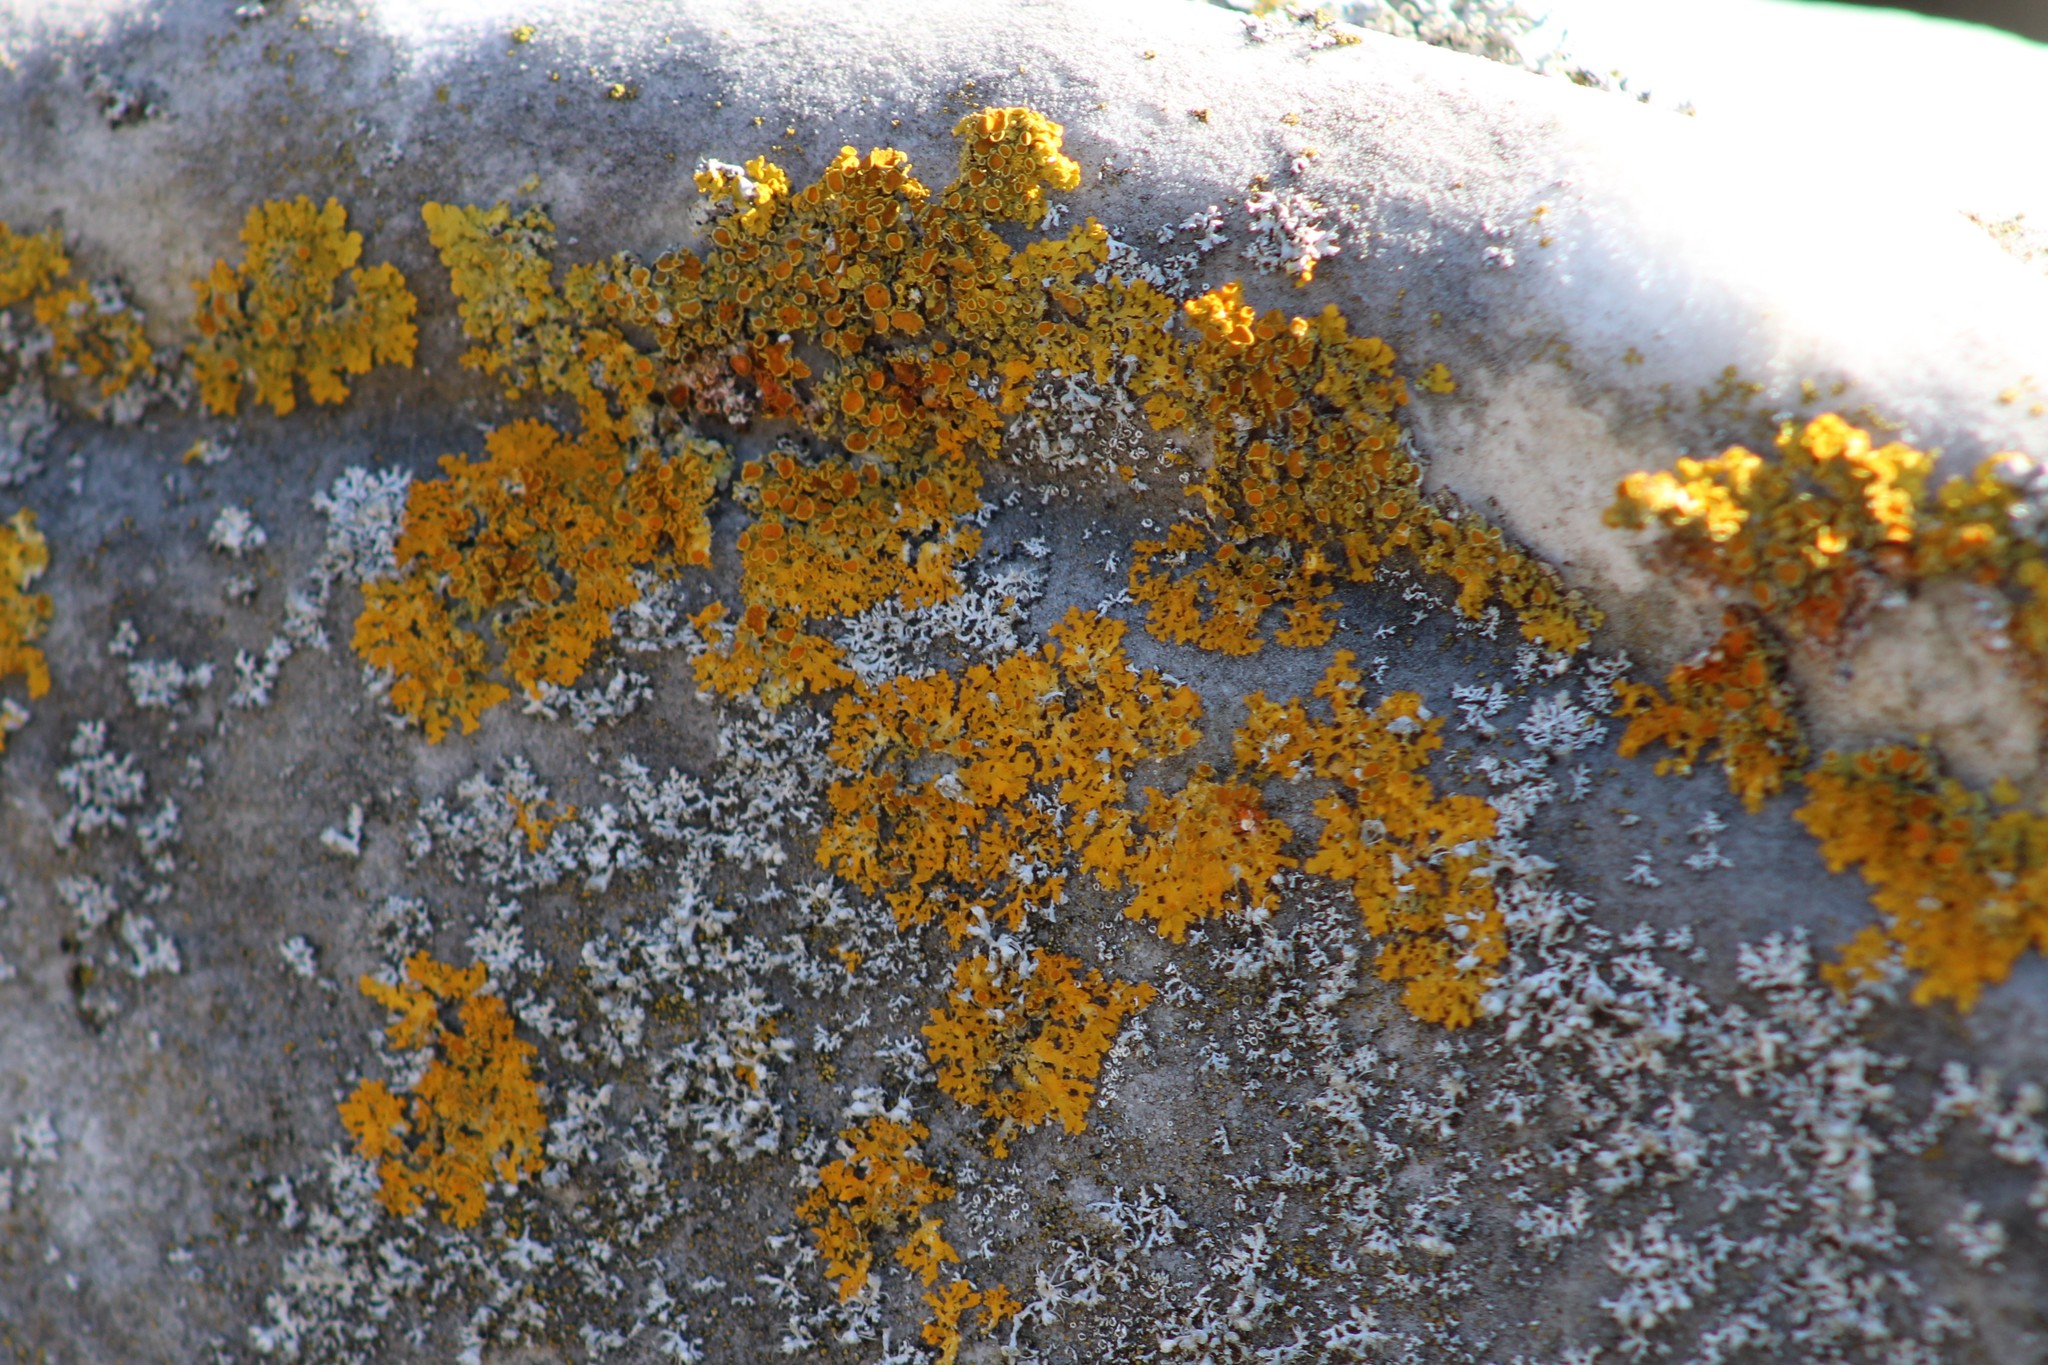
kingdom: Fungi
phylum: Ascomycota
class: Lecanoromycetes
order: Teloschistales
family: Teloschistaceae
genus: Xanthoria
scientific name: Xanthoria parietina
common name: Common orange lichen
